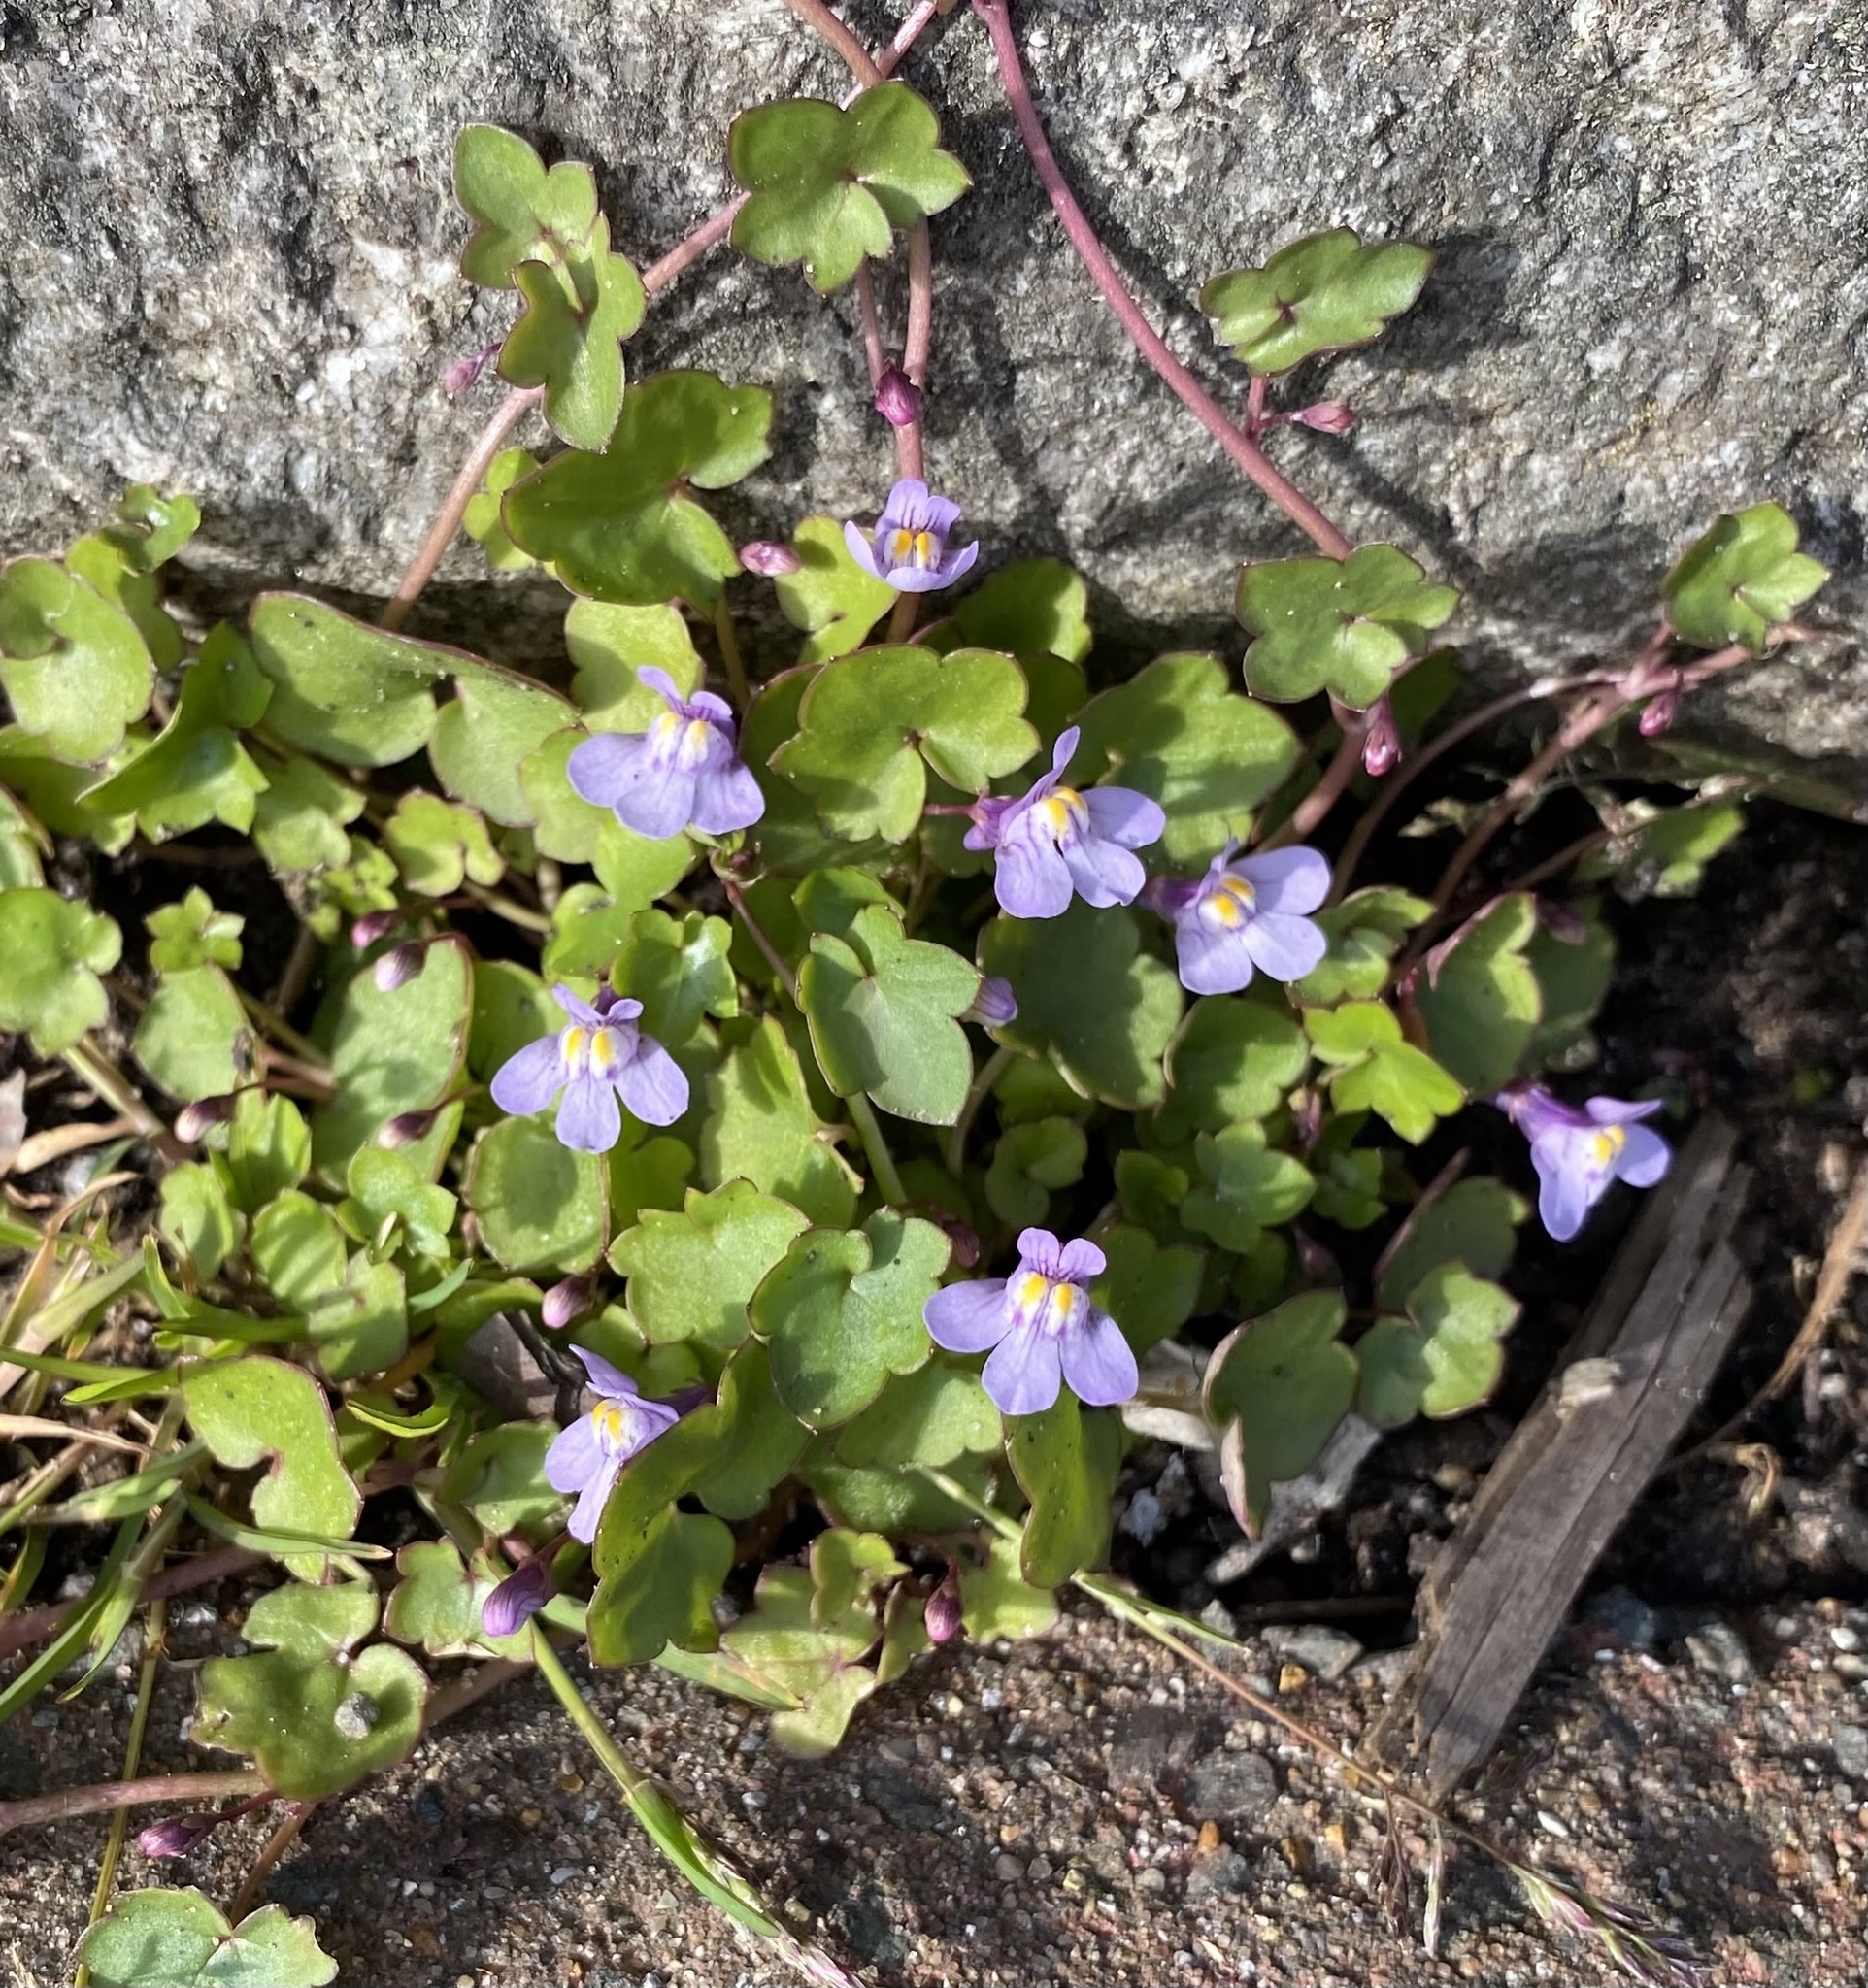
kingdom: Plantae
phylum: Tracheophyta
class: Magnoliopsida
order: Lamiales
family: Plantaginaceae
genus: Cymbalaria
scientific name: Cymbalaria muralis
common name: Ivy-leaved toadflax
